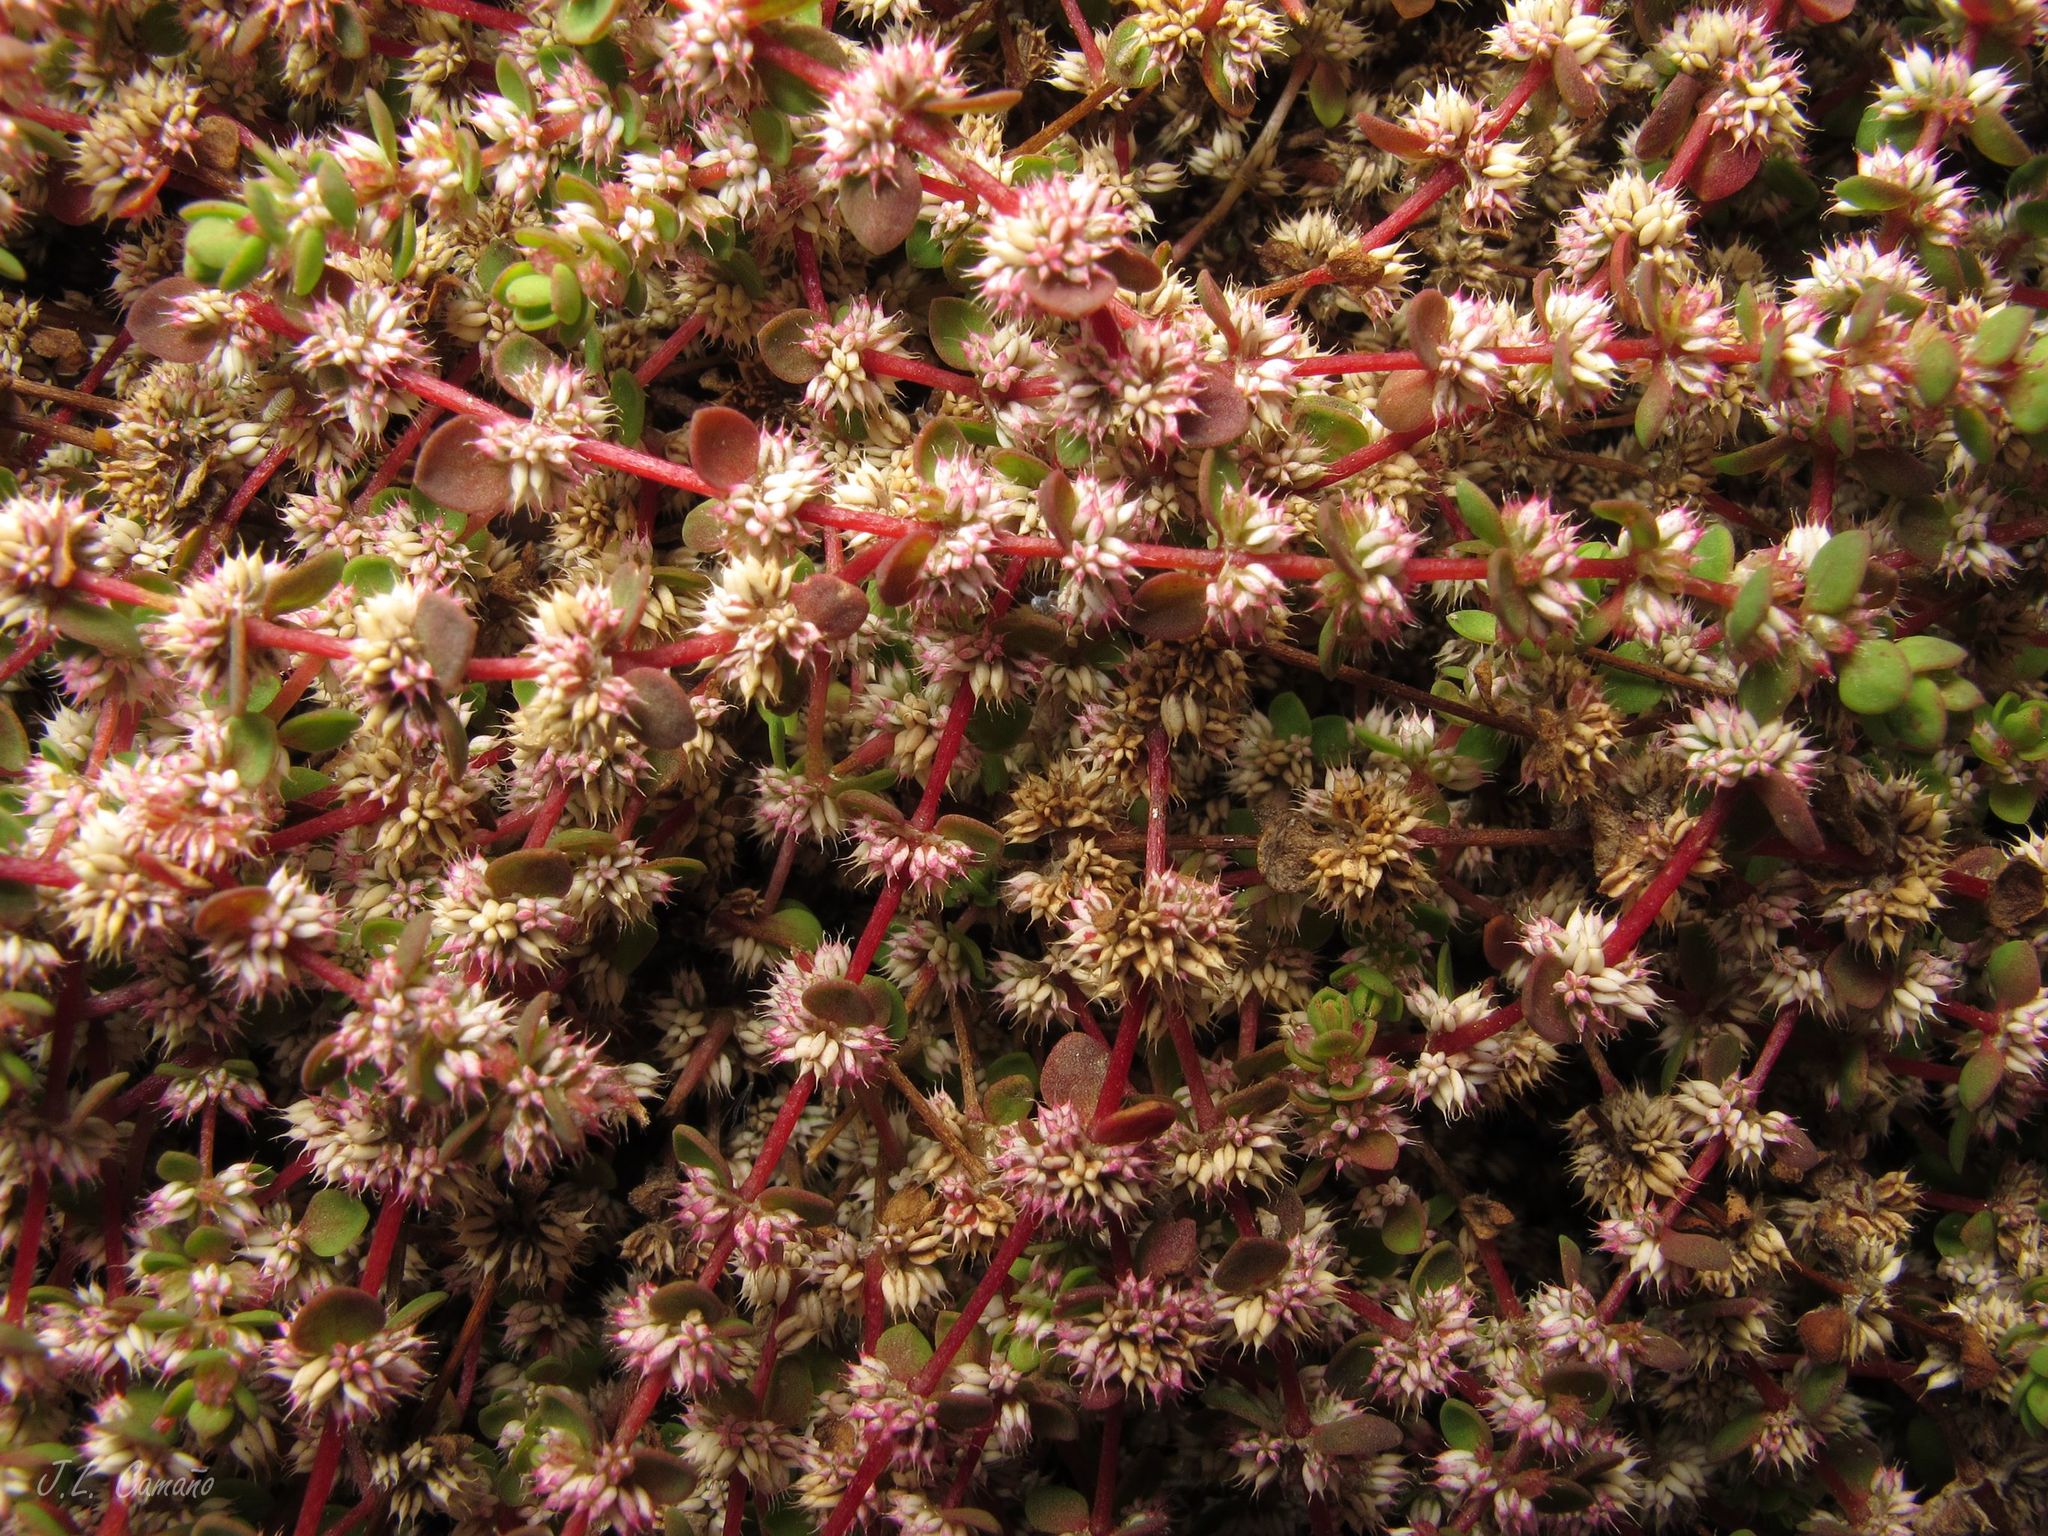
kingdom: Plantae
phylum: Tracheophyta
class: Magnoliopsida
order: Caryophyllales
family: Caryophyllaceae
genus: Illecebrum
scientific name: Illecebrum verticillatum
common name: Coral necklace
